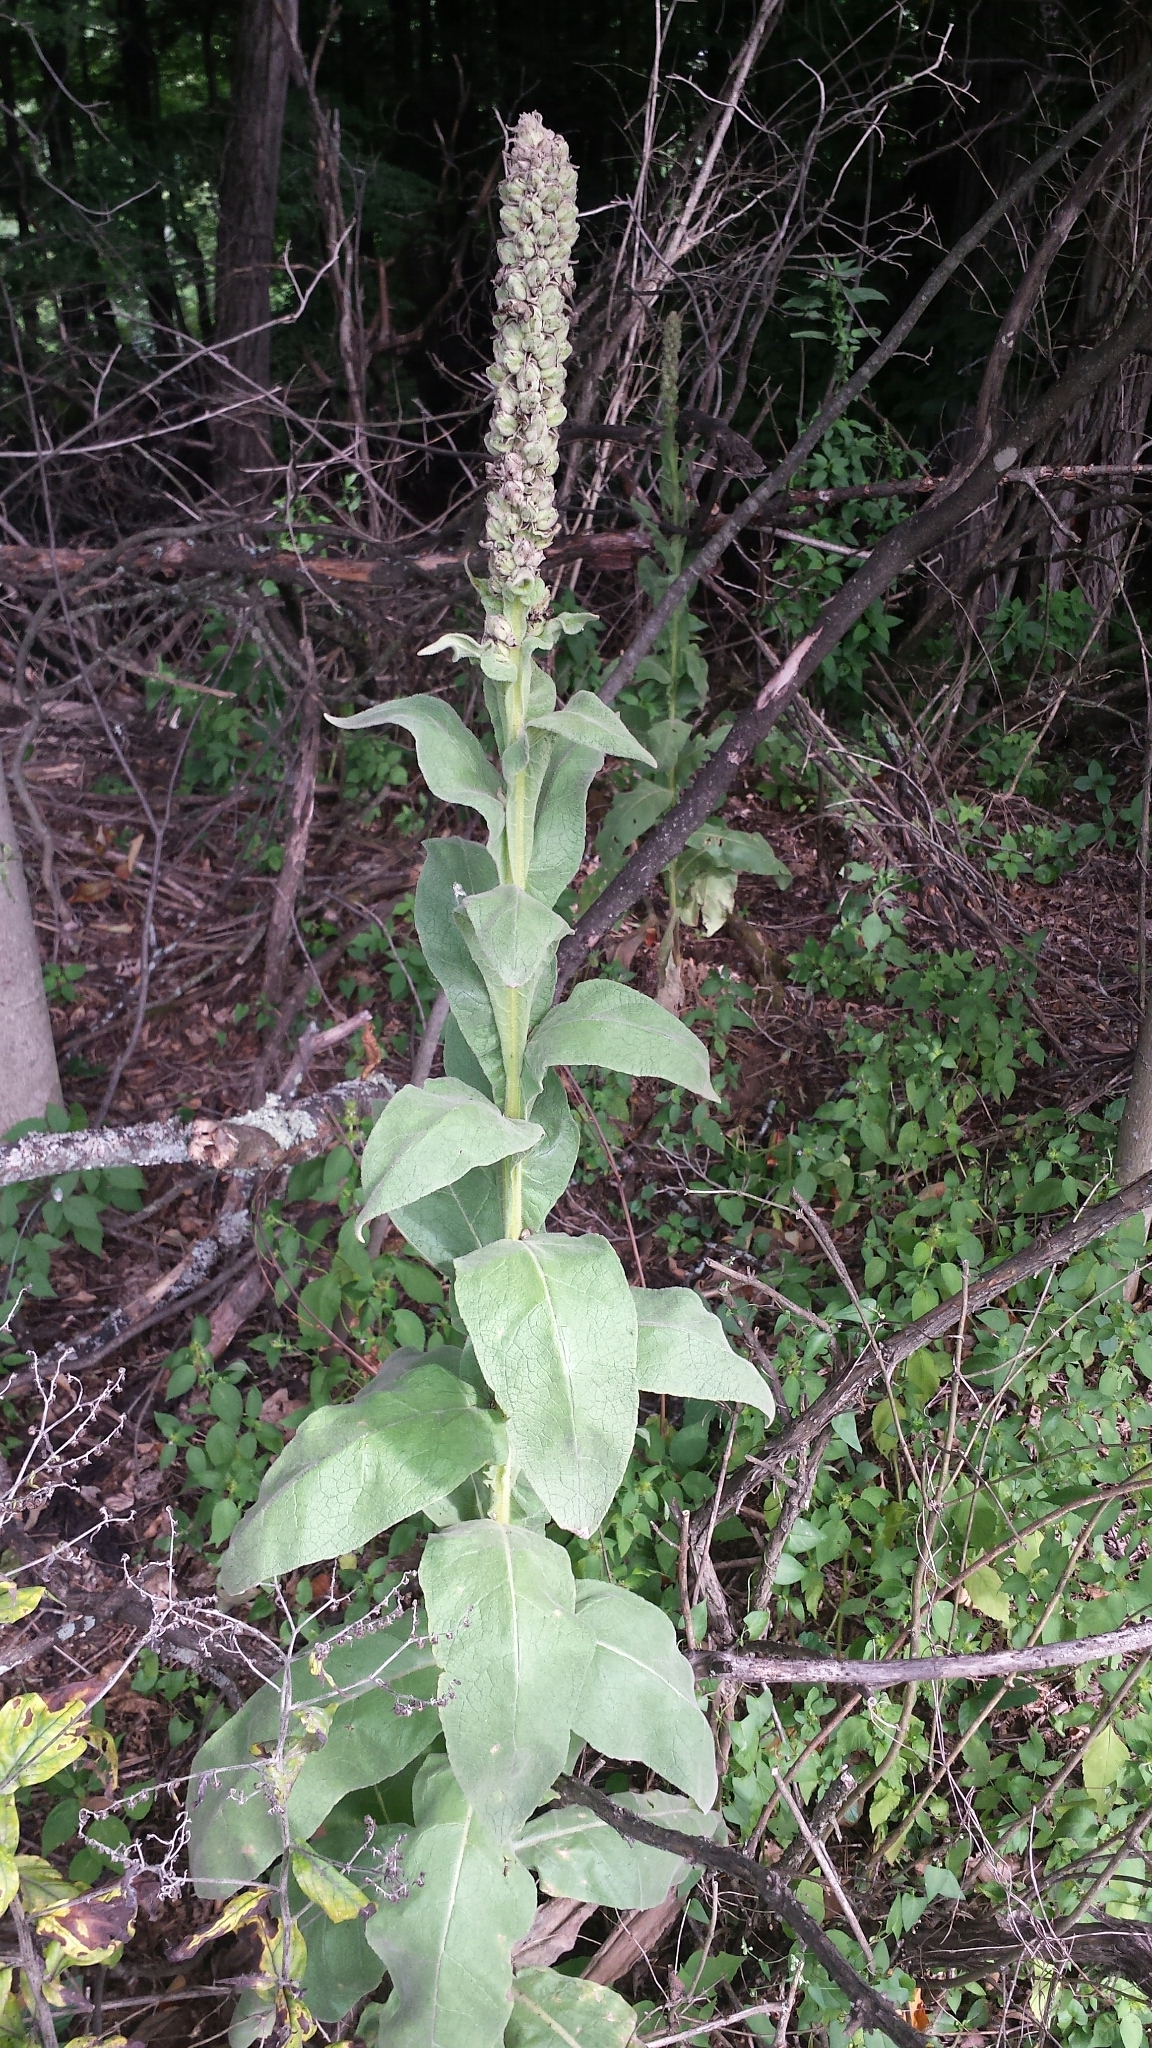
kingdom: Plantae
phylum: Tracheophyta
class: Magnoliopsida
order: Lamiales
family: Scrophulariaceae
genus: Verbascum
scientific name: Verbascum thapsus
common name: Common mullein
